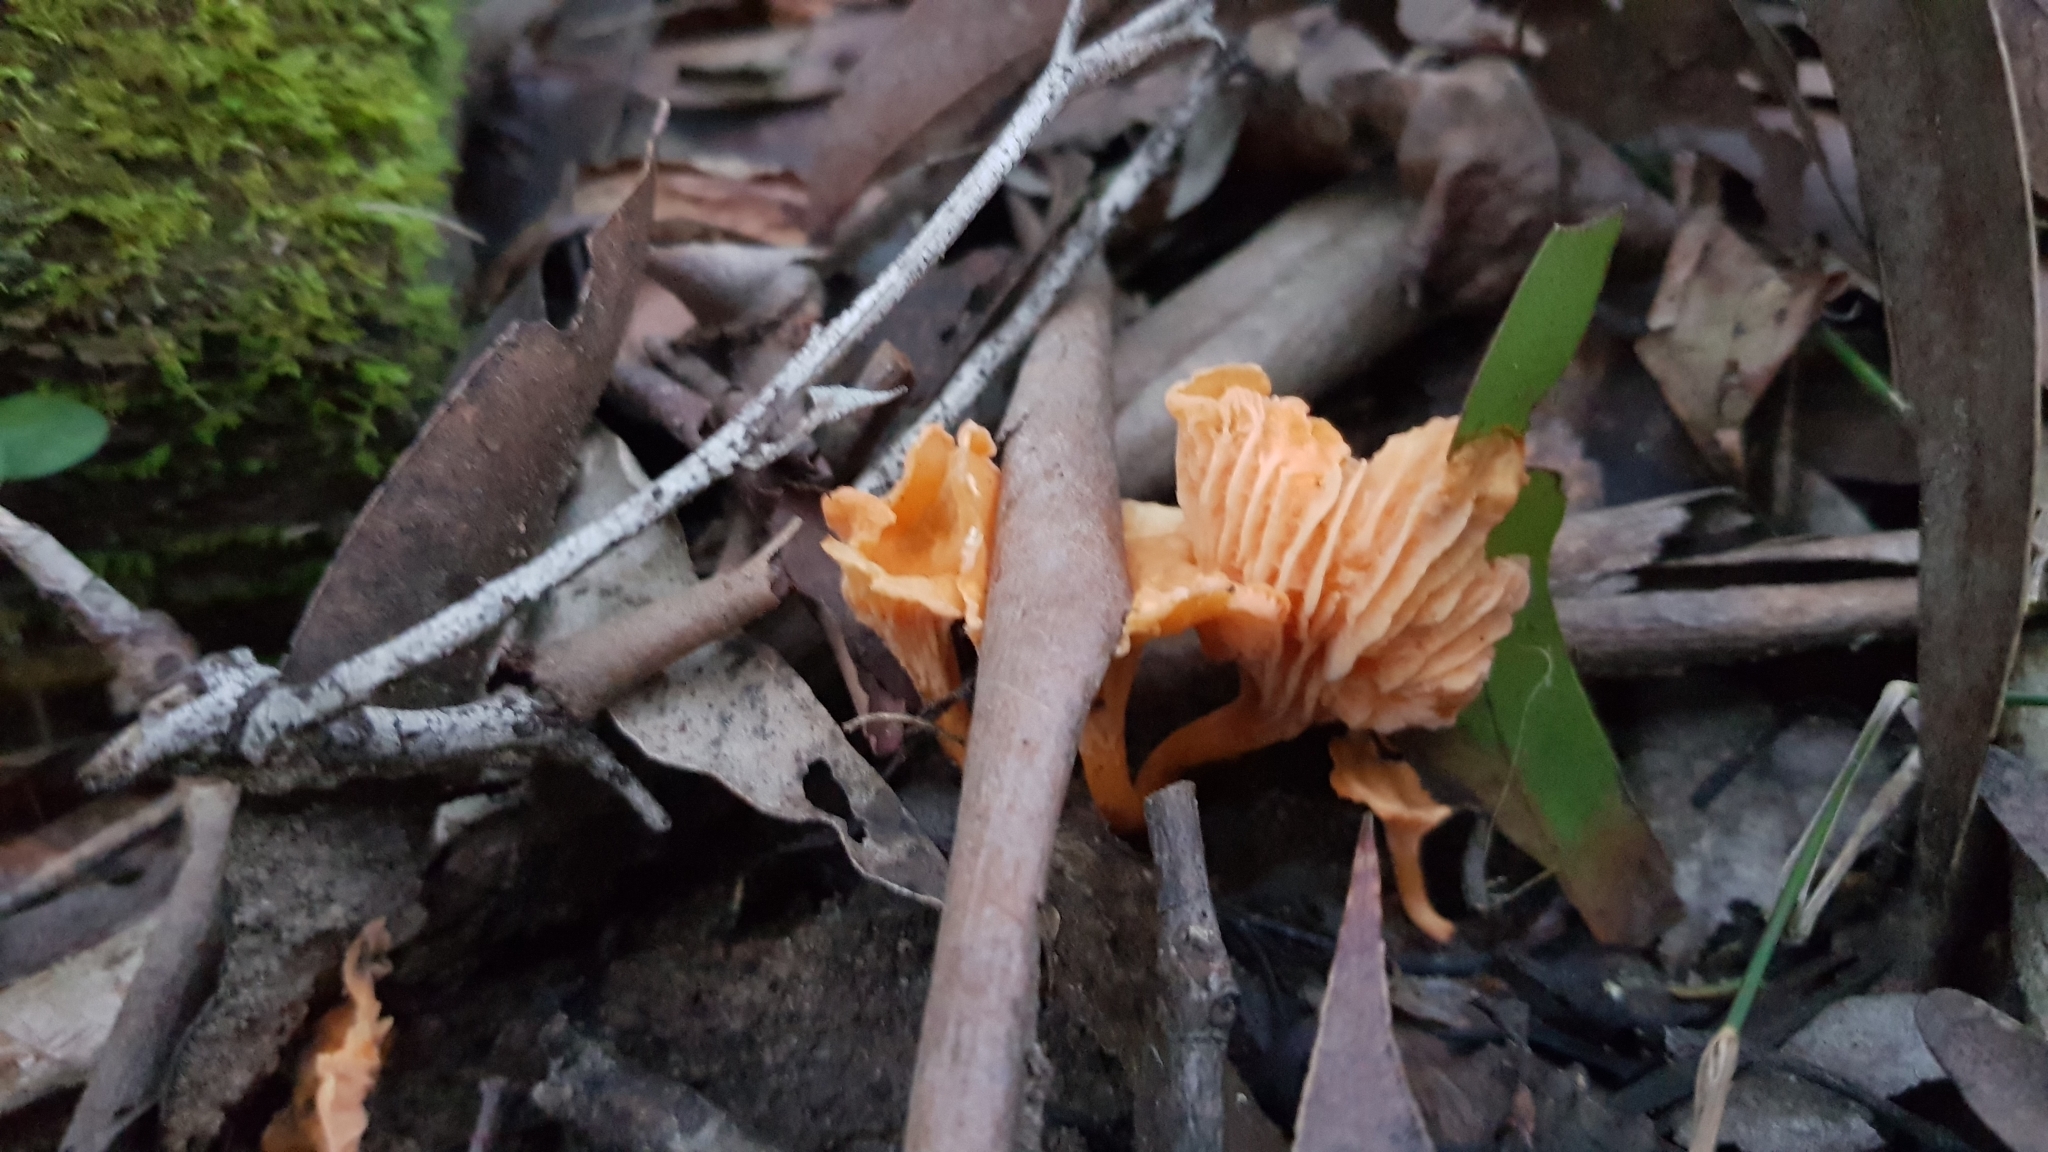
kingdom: Fungi
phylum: Basidiomycota
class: Agaricomycetes
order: Cantharellales
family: Hydnaceae
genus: Cantharellus
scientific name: Cantharellus
